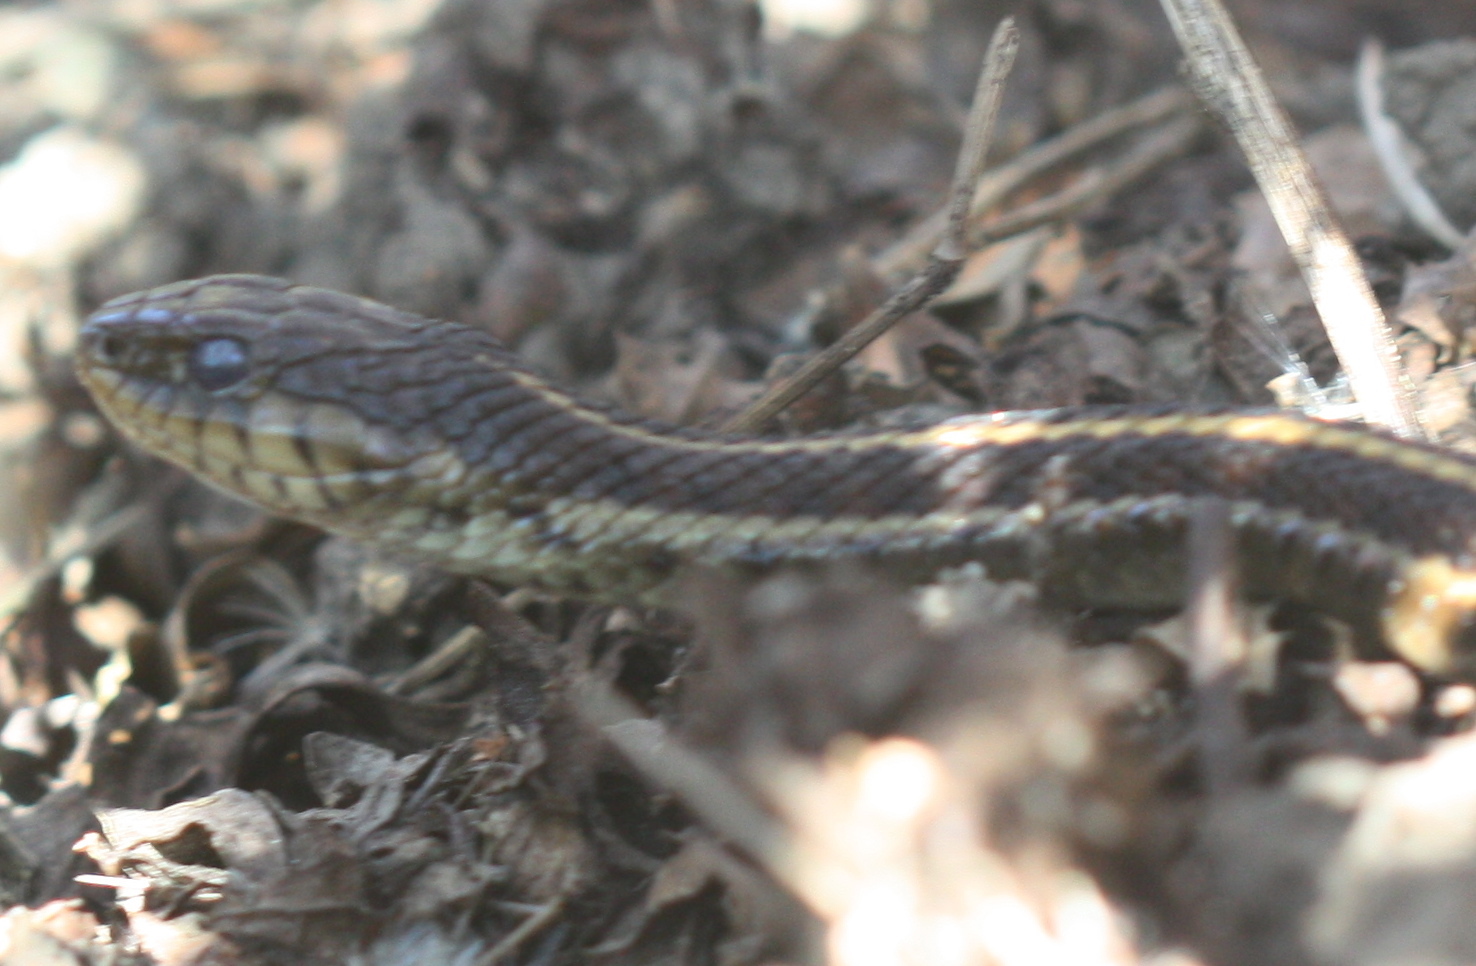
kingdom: Animalia
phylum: Chordata
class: Squamata
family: Colubridae
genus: Thamnophis
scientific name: Thamnophis elegans
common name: Western terrestrial garter snake
